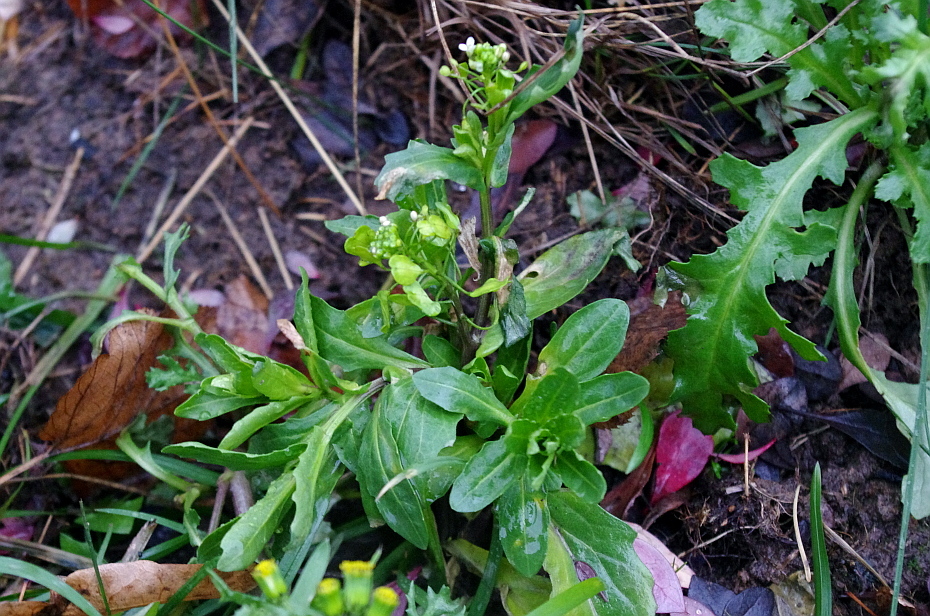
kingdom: Plantae
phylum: Tracheophyta
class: Magnoliopsida
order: Brassicales
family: Brassicaceae
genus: Thlaspi
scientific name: Thlaspi arvense
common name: Field pennycress
